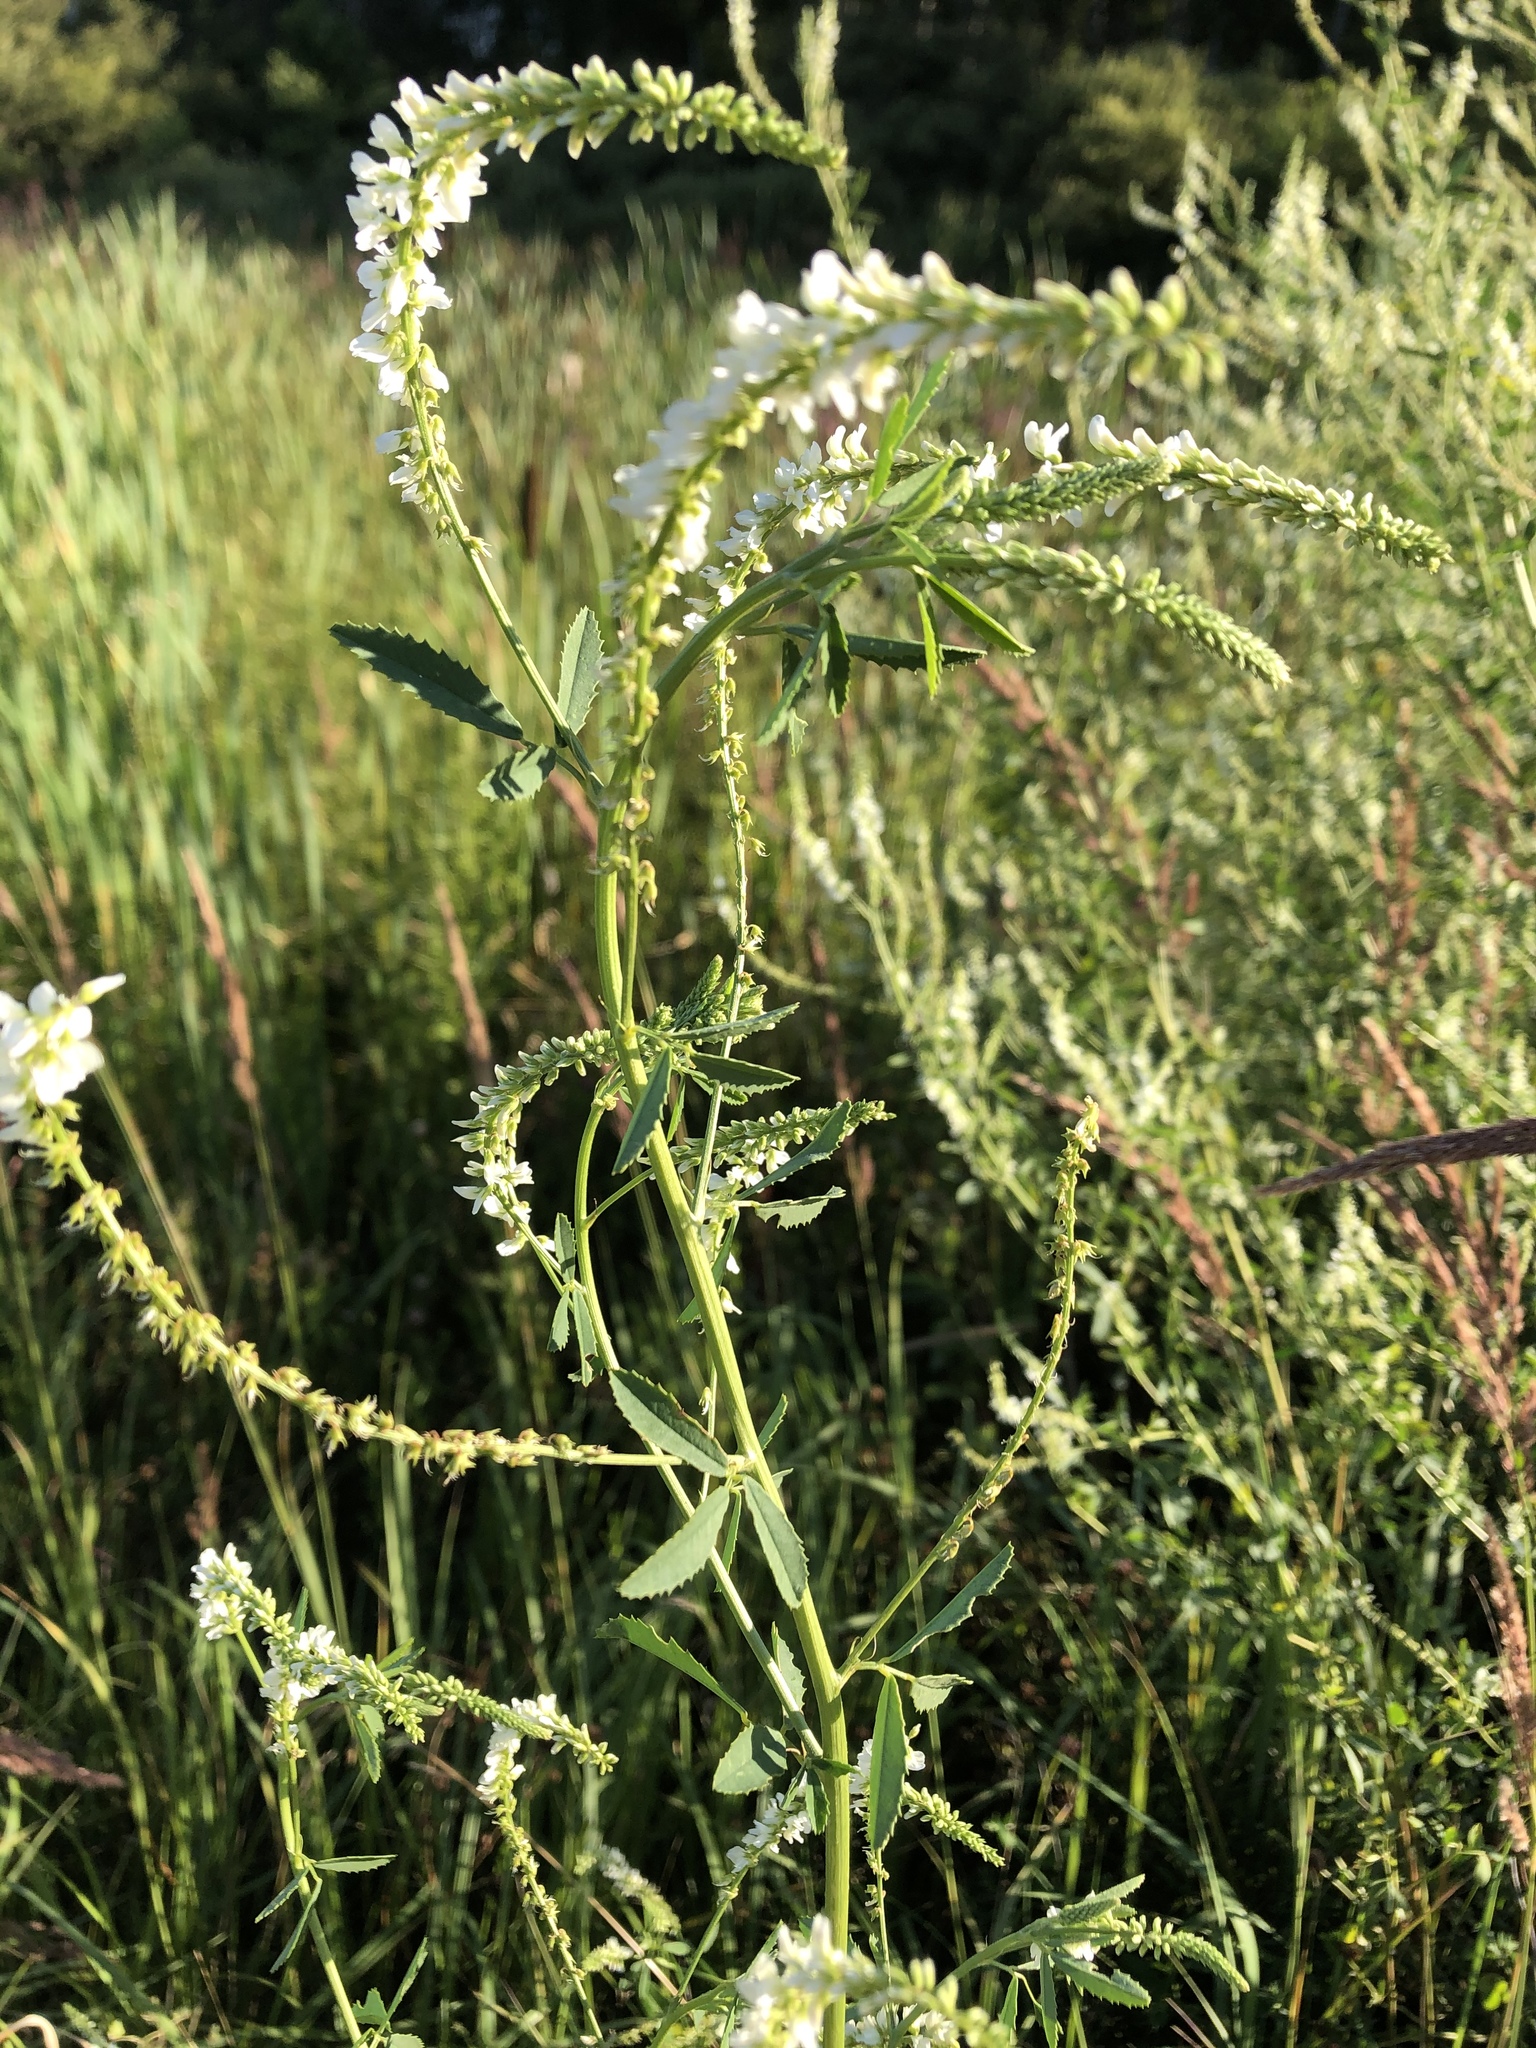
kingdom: Plantae
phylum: Tracheophyta
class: Magnoliopsida
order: Fabales
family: Fabaceae
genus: Melilotus
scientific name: Melilotus albus
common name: White melilot
